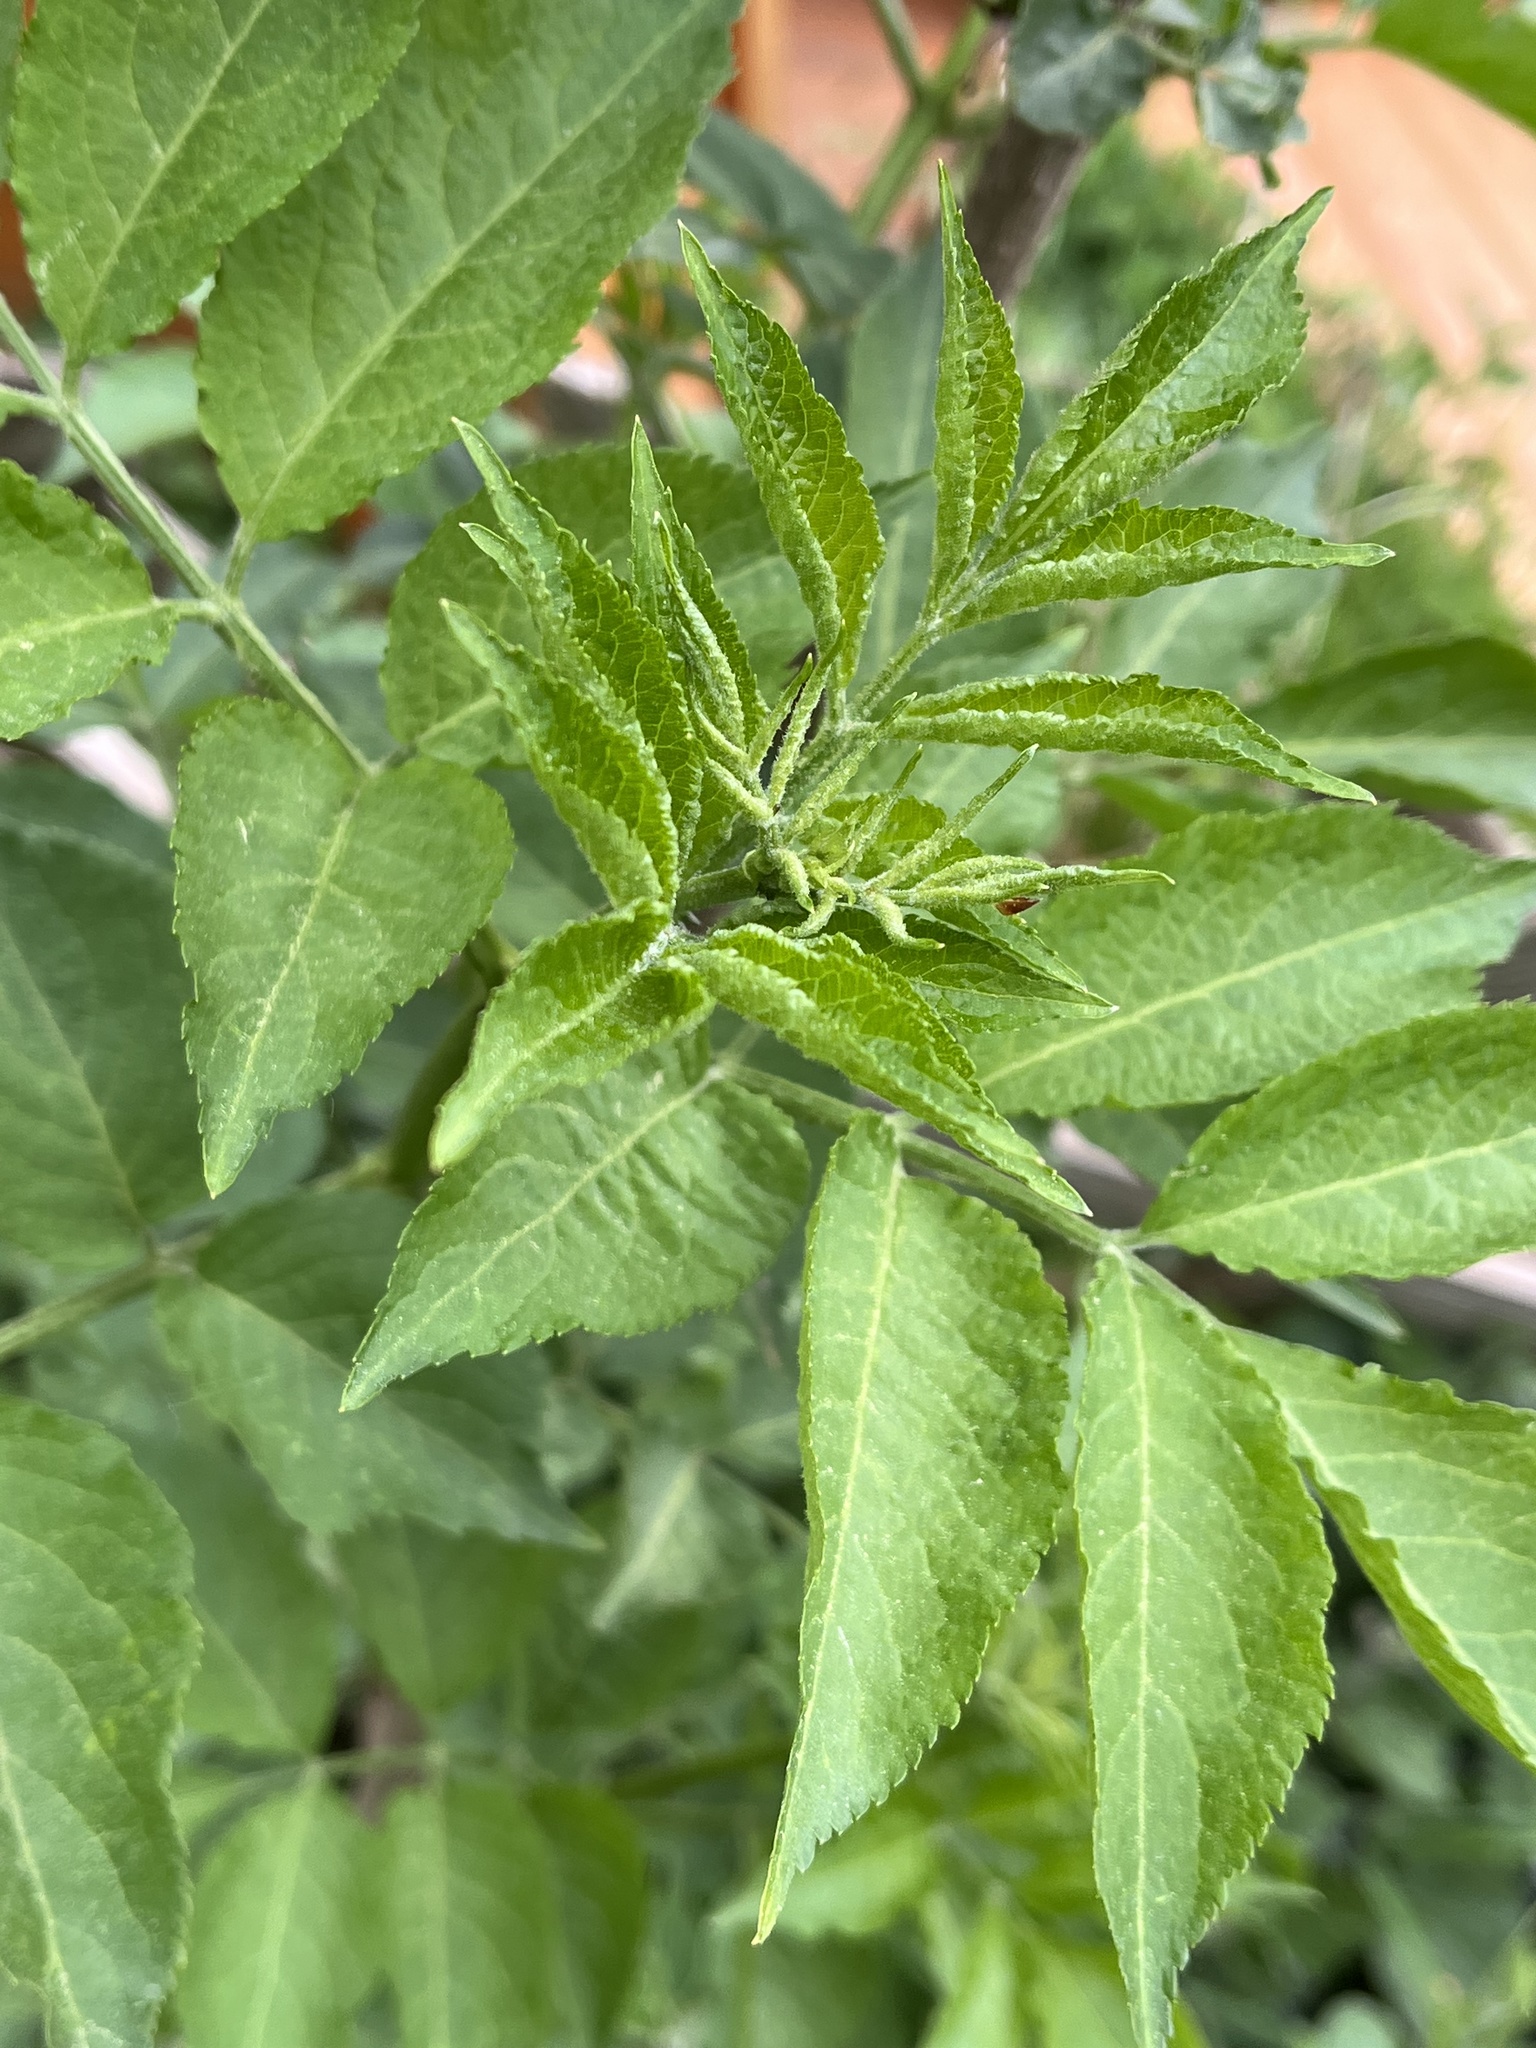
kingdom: Plantae
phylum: Tracheophyta
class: Magnoliopsida
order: Dipsacales
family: Viburnaceae
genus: Sambucus
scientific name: Sambucus nigra
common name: Elder
